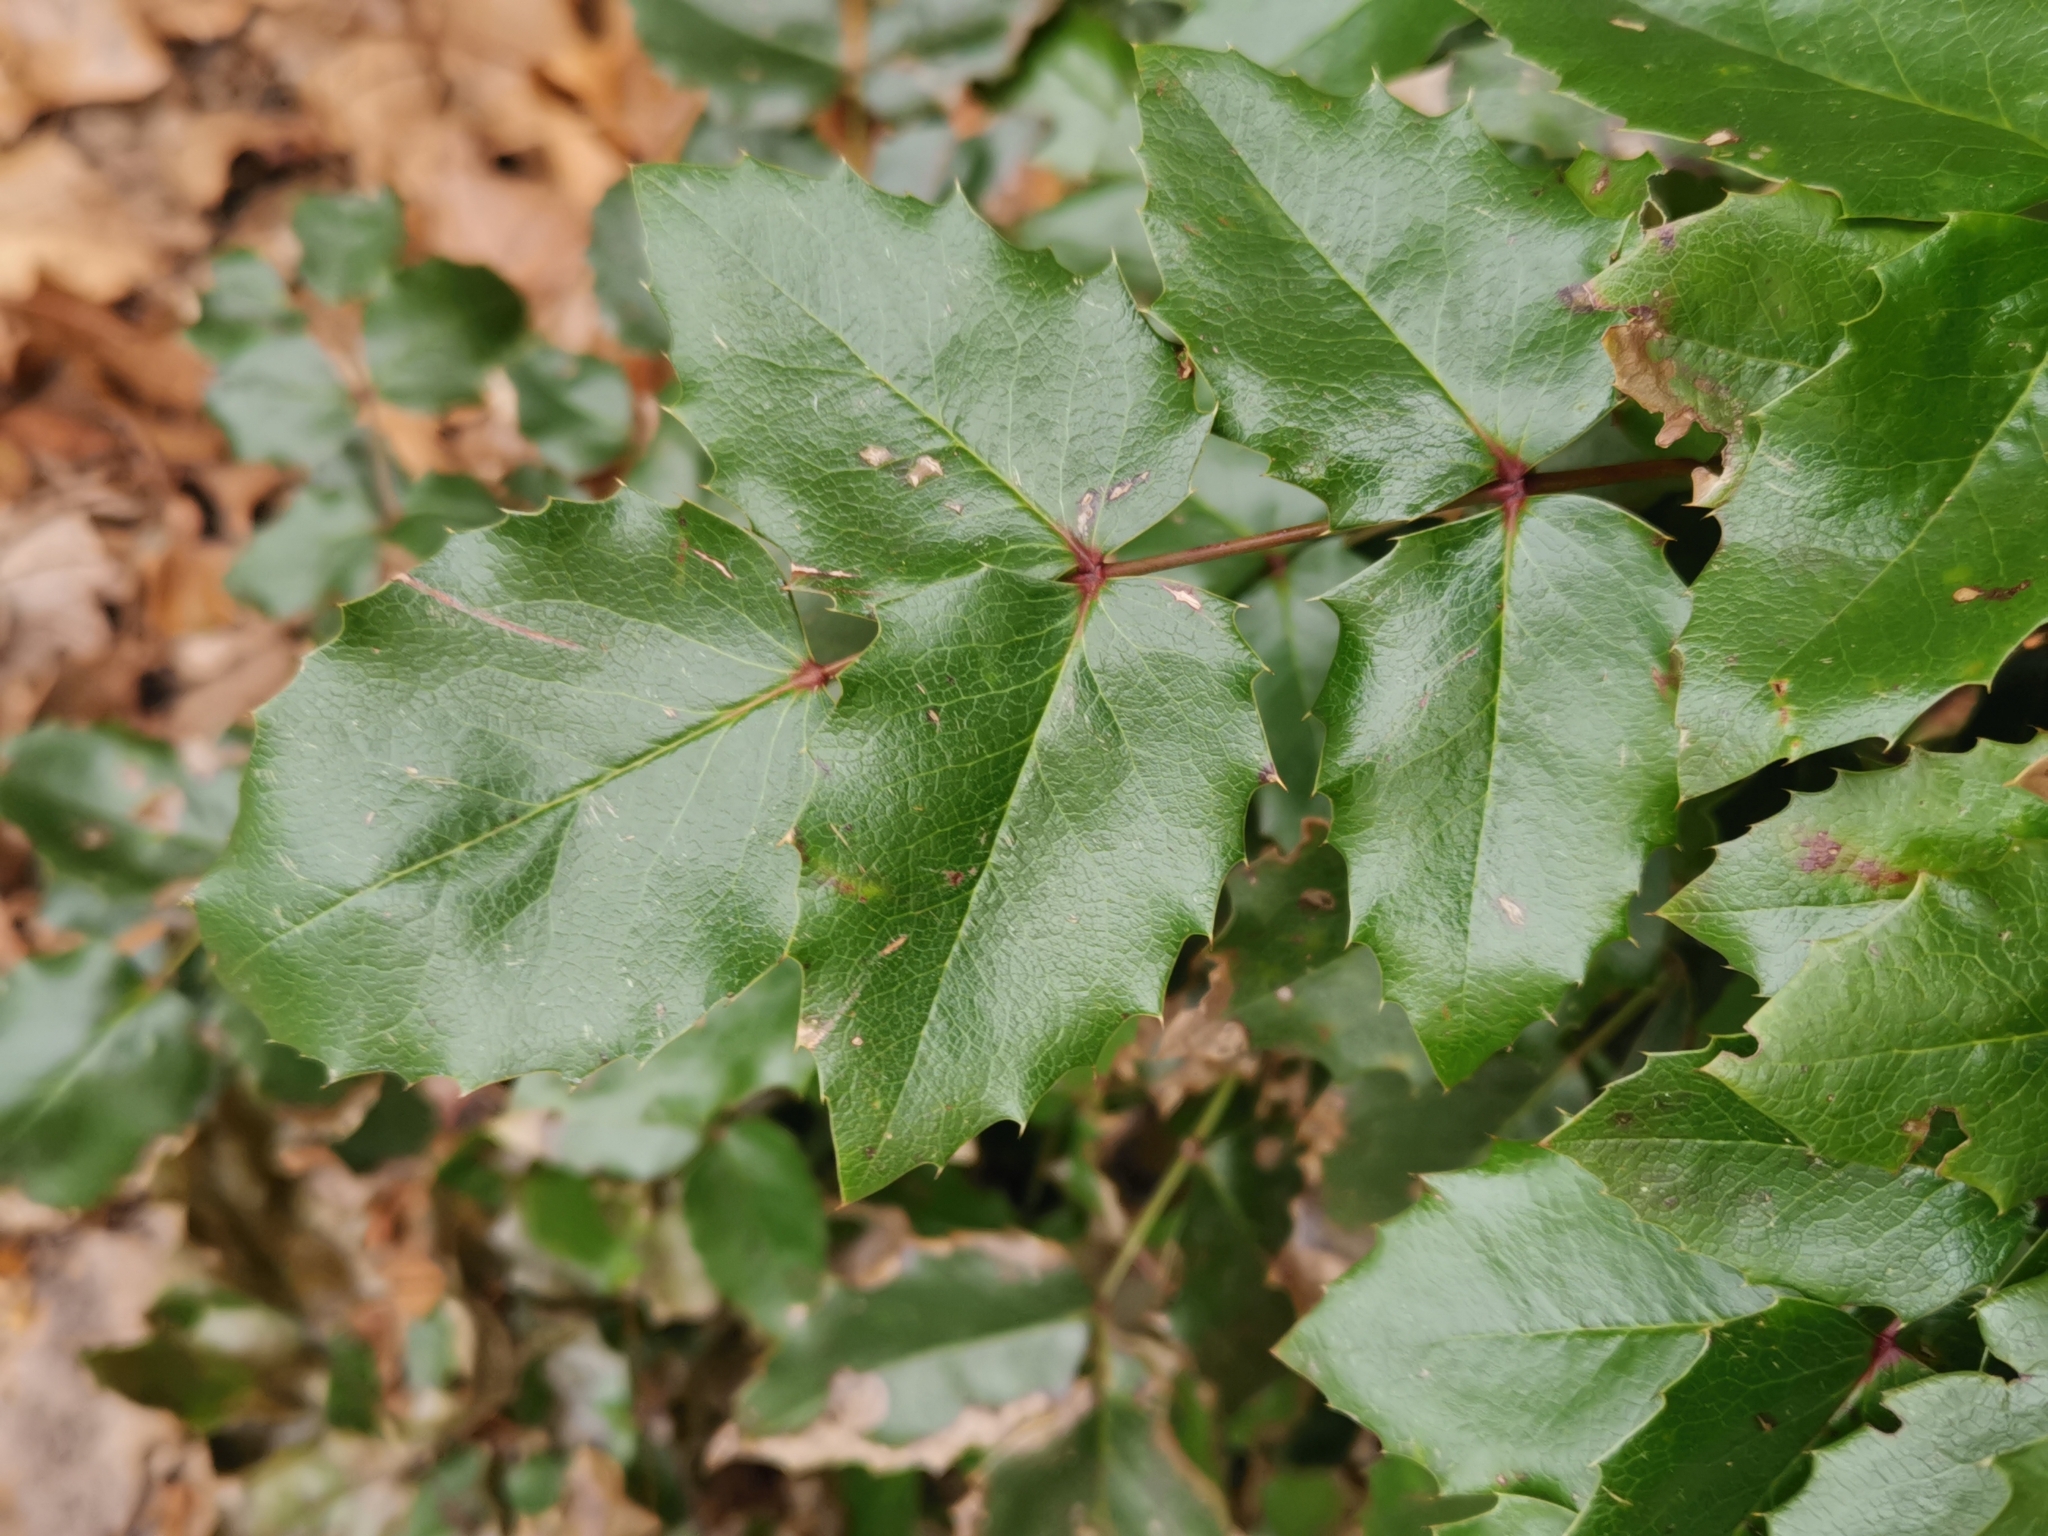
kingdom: Plantae
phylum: Tracheophyta
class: Magnoliopsida
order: Ranunculales
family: Berberidaceae
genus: Mahonia
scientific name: Mahonia aquifolium
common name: Oregon-grape
